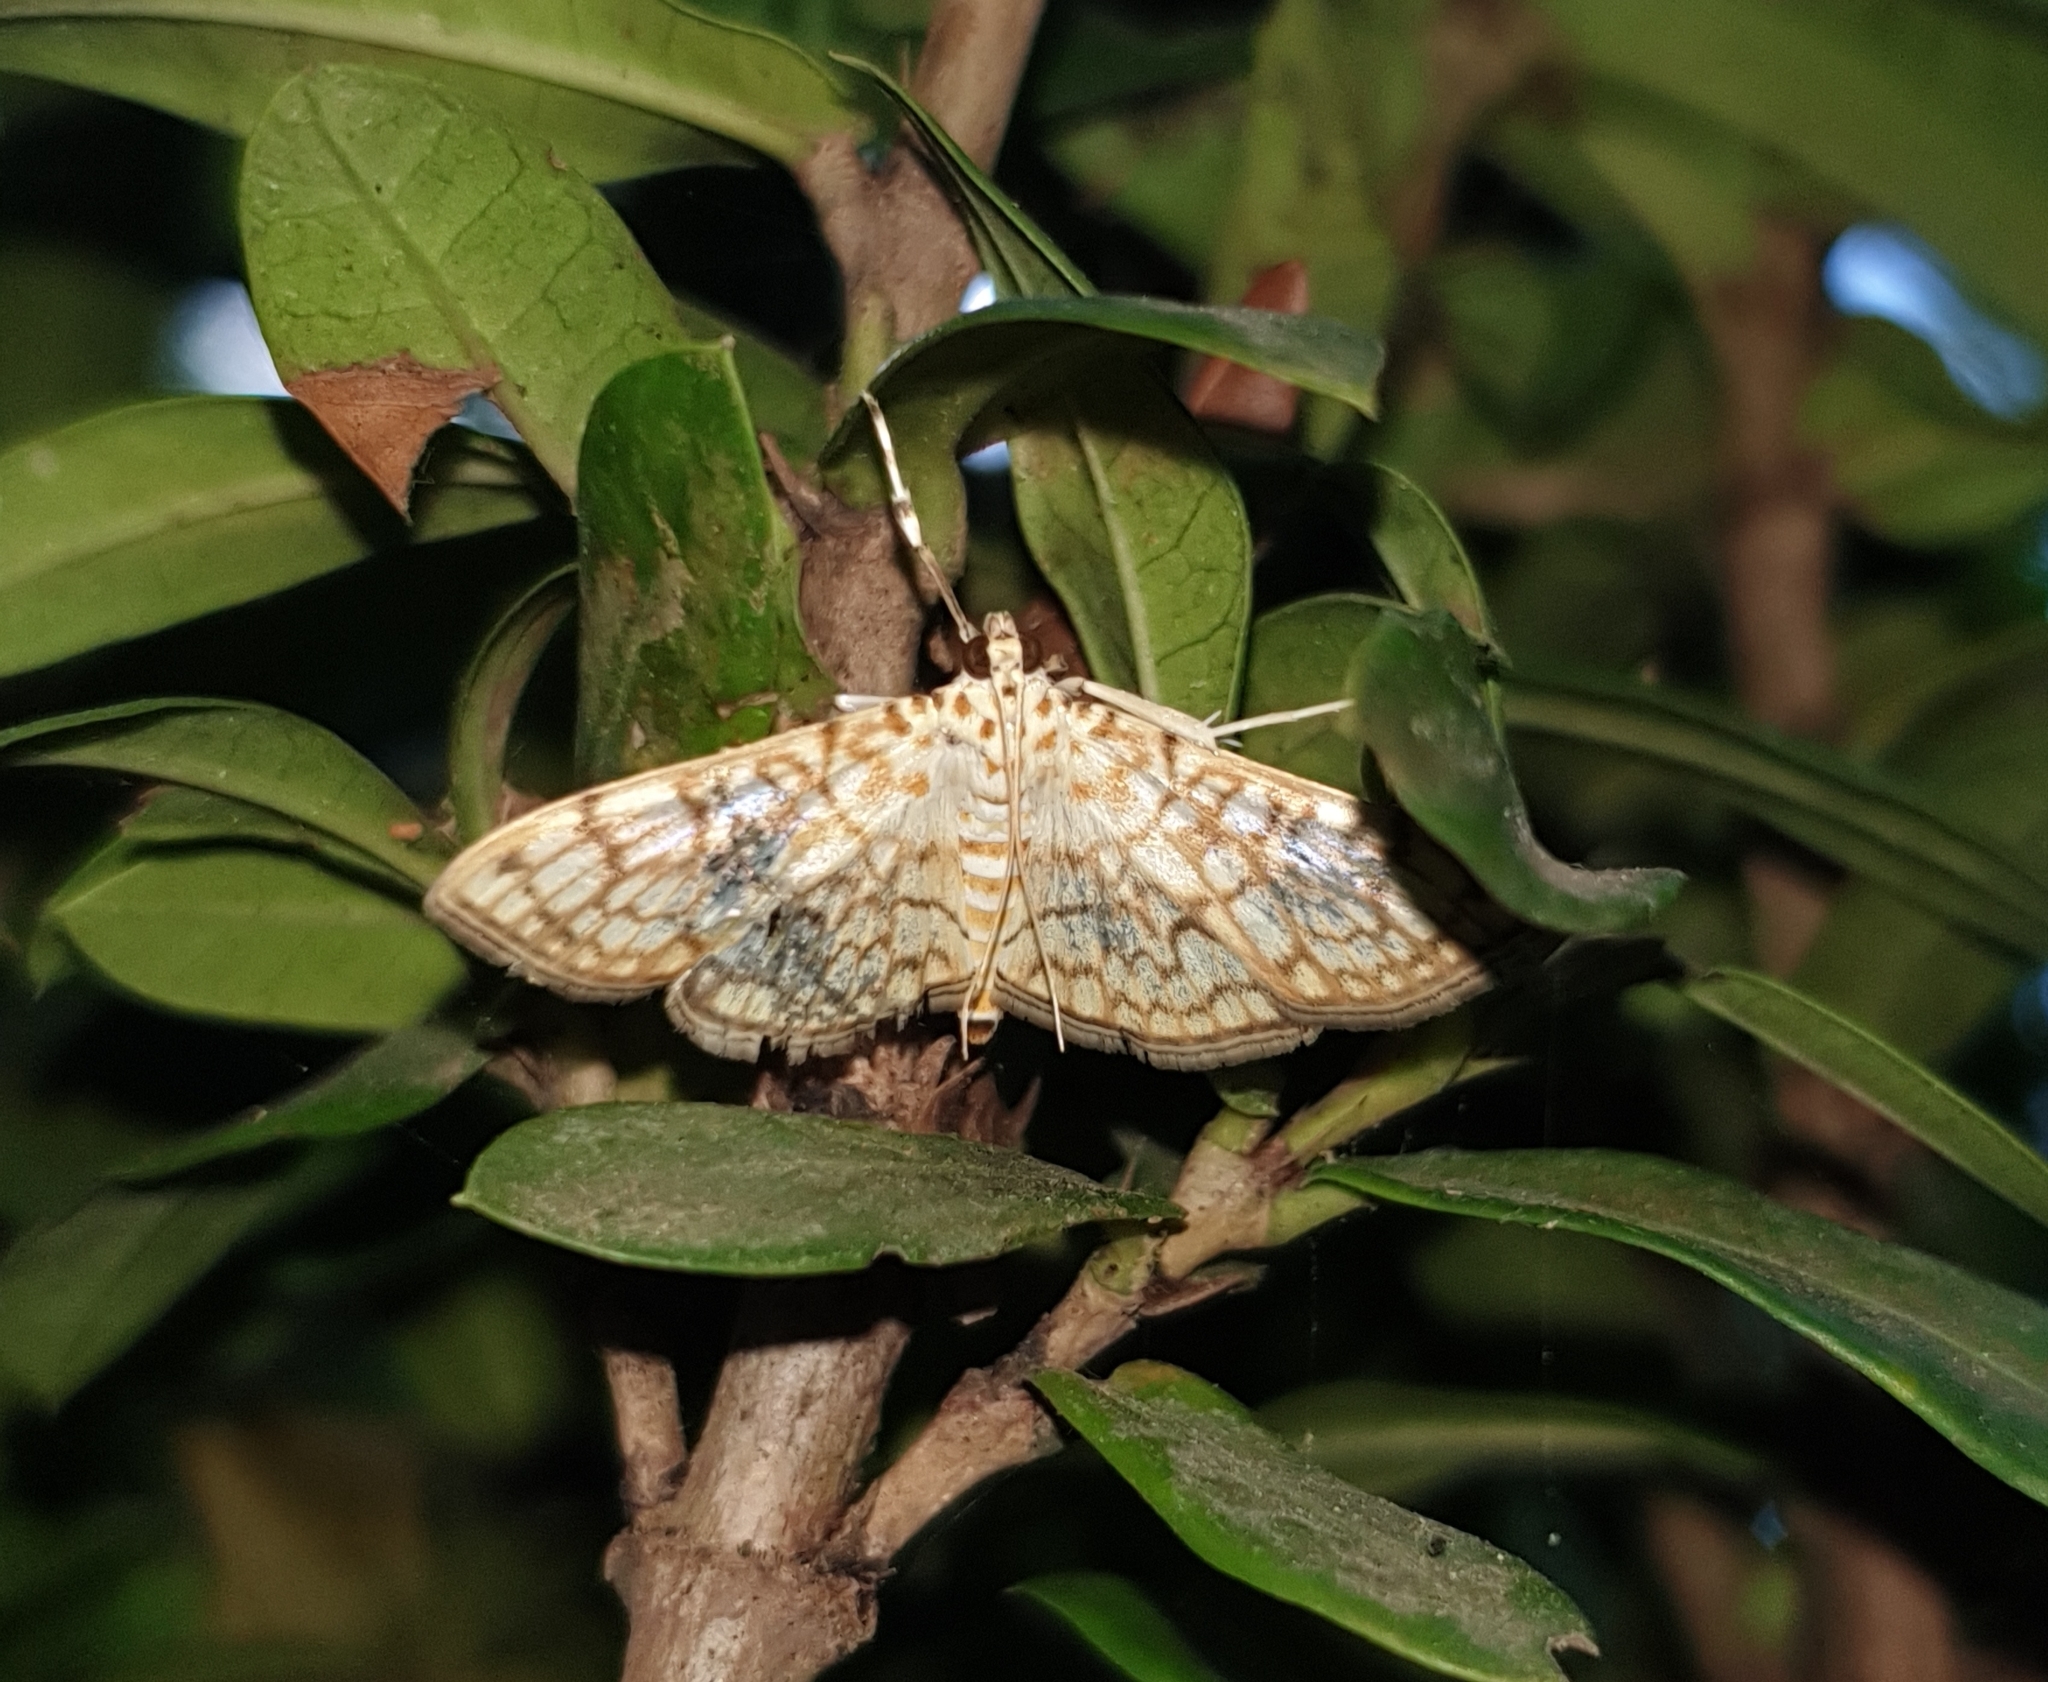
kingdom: Animalia
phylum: Arthropoda
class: Insecta
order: Lepidoptera
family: Crambidae
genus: Haritalodes
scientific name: Haritalodes derogata
